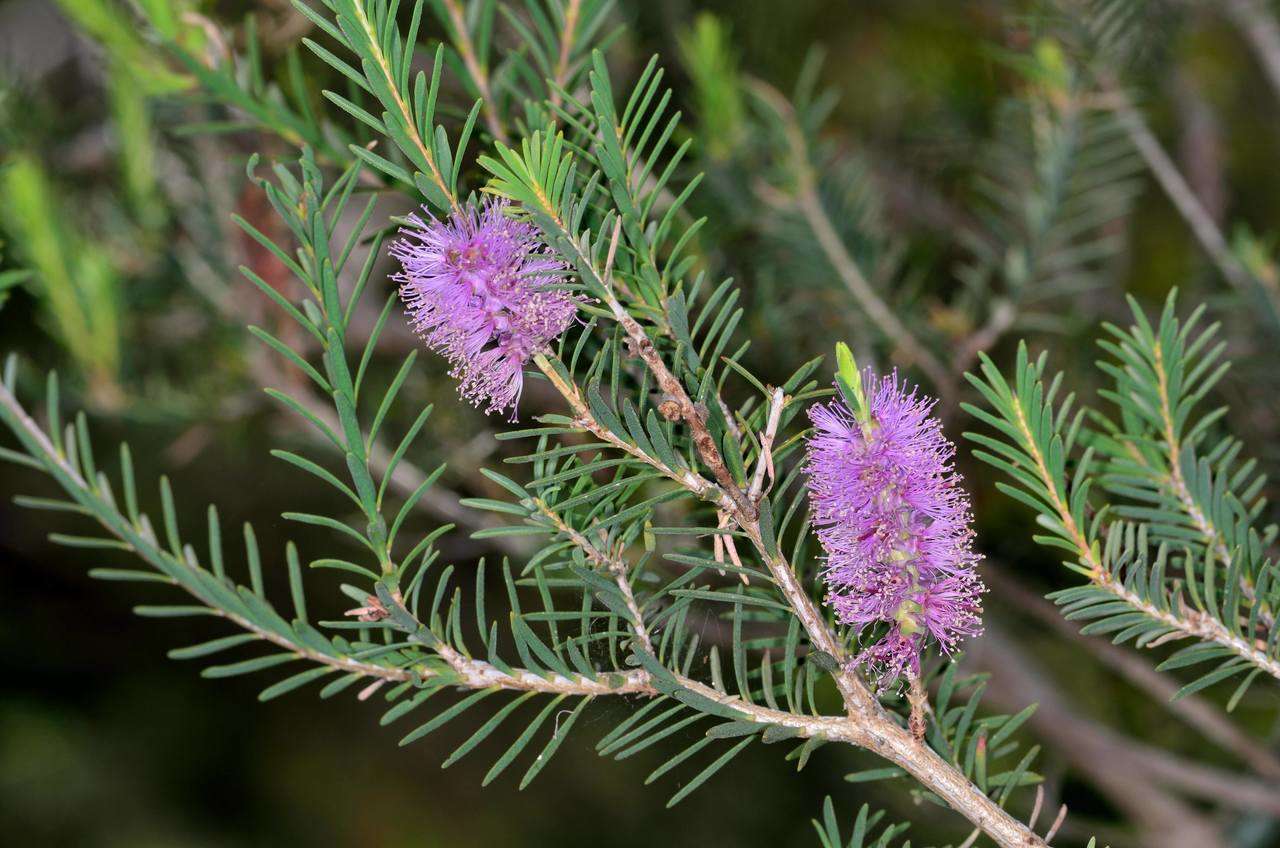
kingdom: Plantae
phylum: Tracheophyta
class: Magnoliopsida
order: Myrtales
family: Myrtaceae
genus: Melaleuca
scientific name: Melaleuca decussata
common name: Cross-leaf honey myrtle
